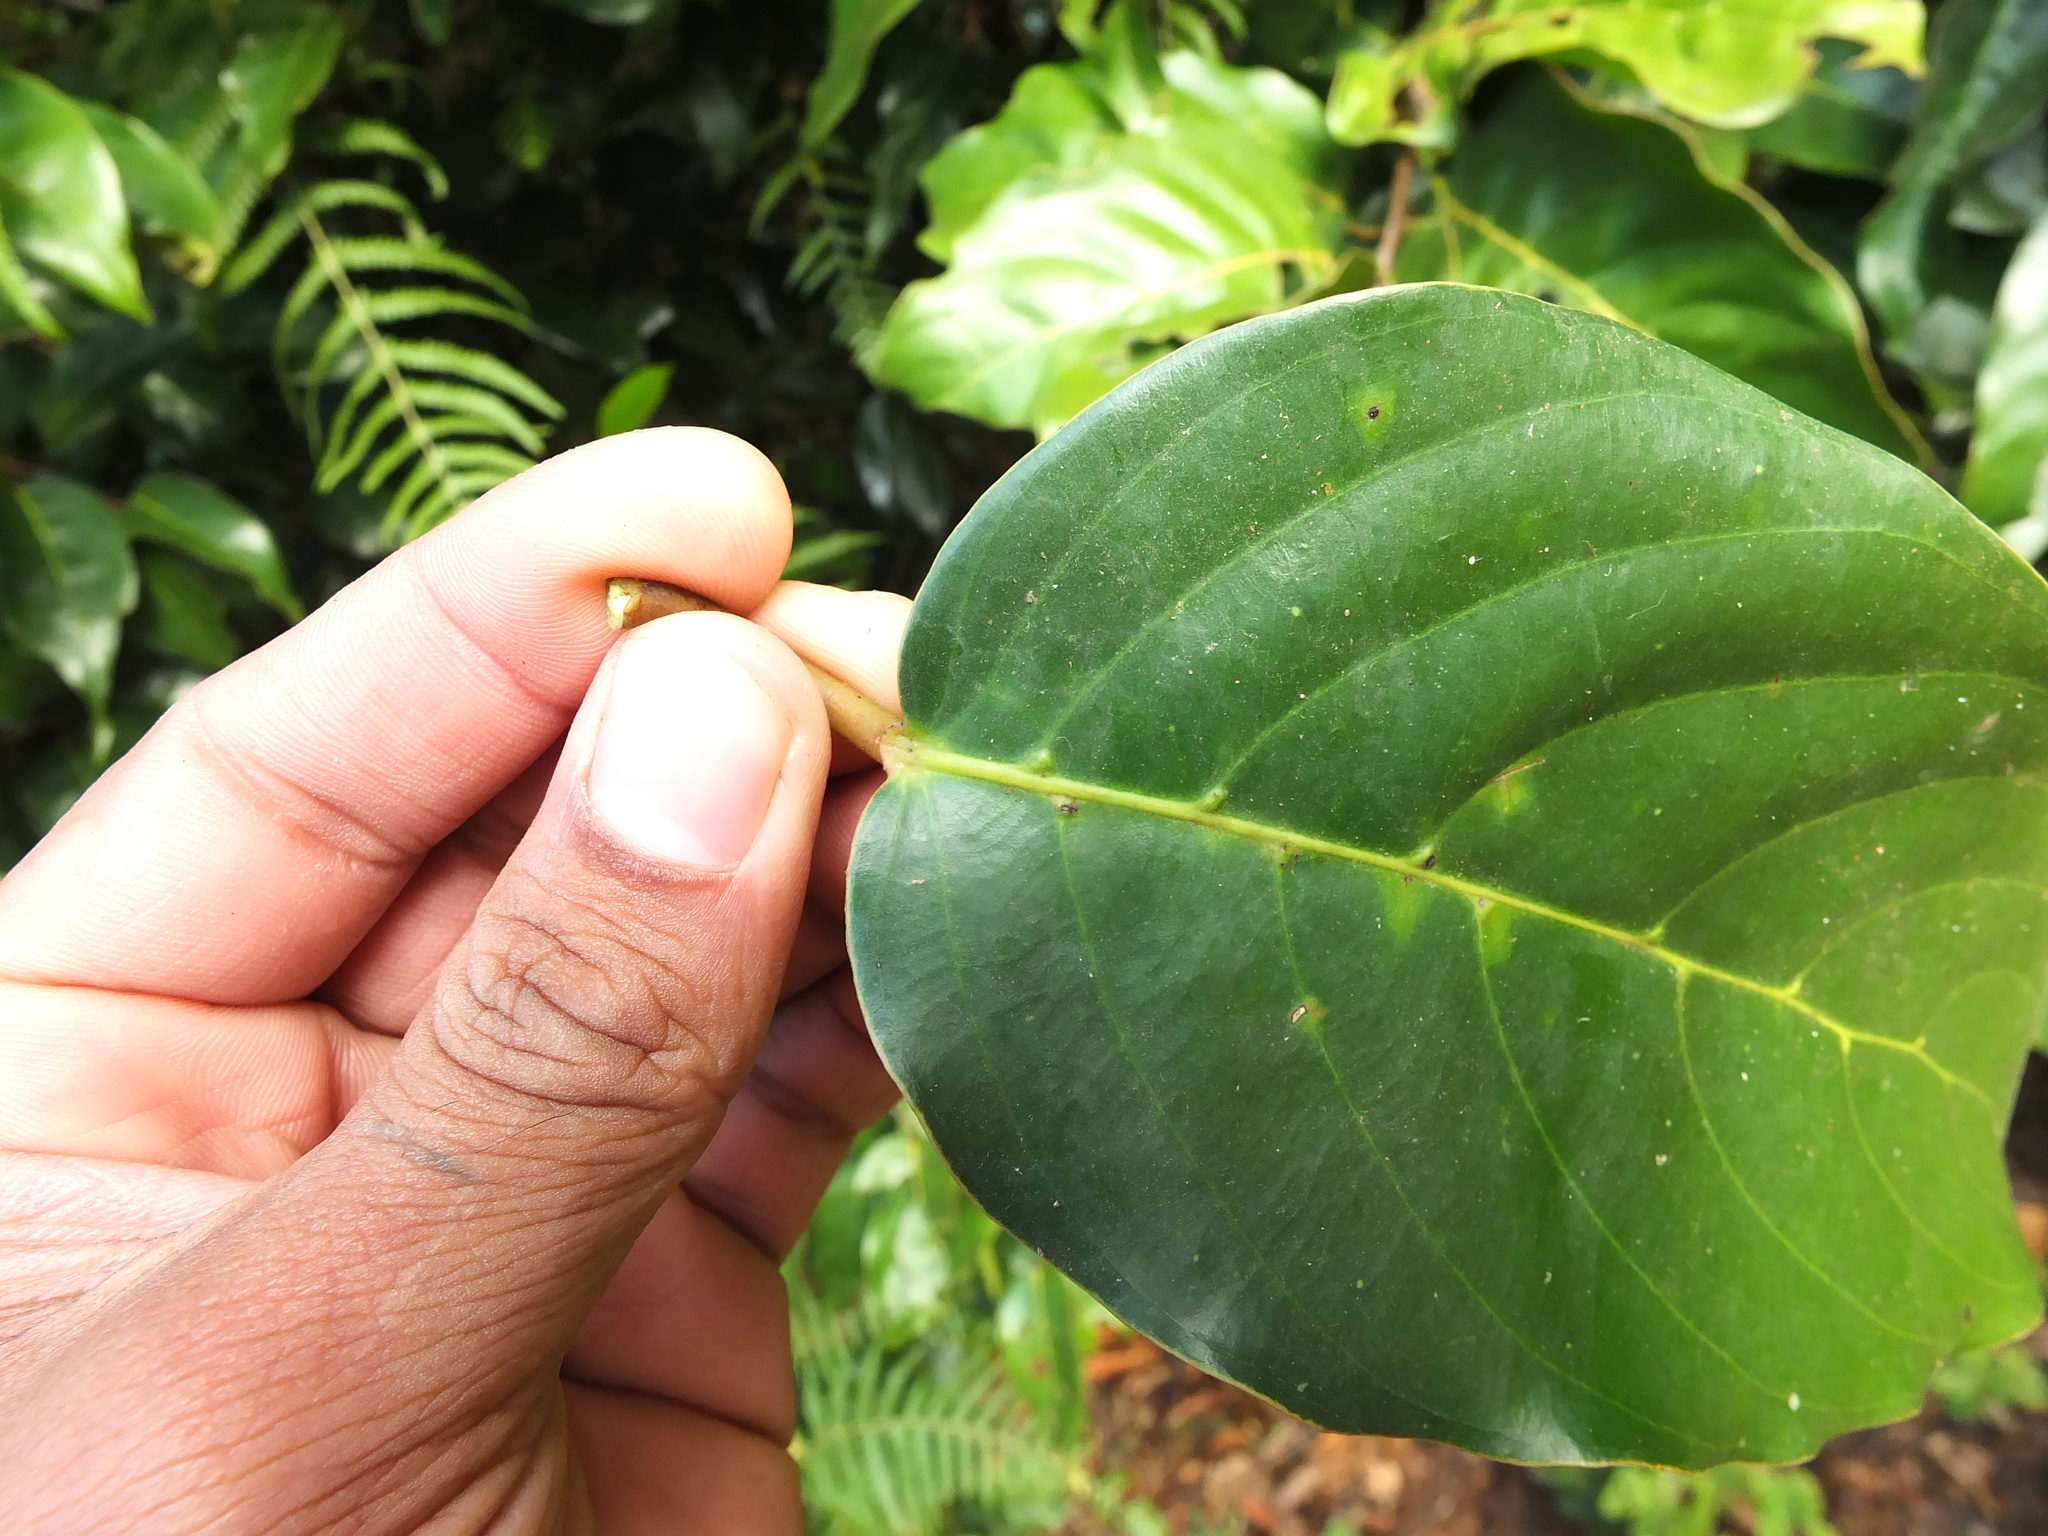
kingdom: Plantae
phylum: Tracheophyta
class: Magnoliopsida
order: Malvales
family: Dipterocarpaceae
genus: Hopea
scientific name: Hopea canarensis
